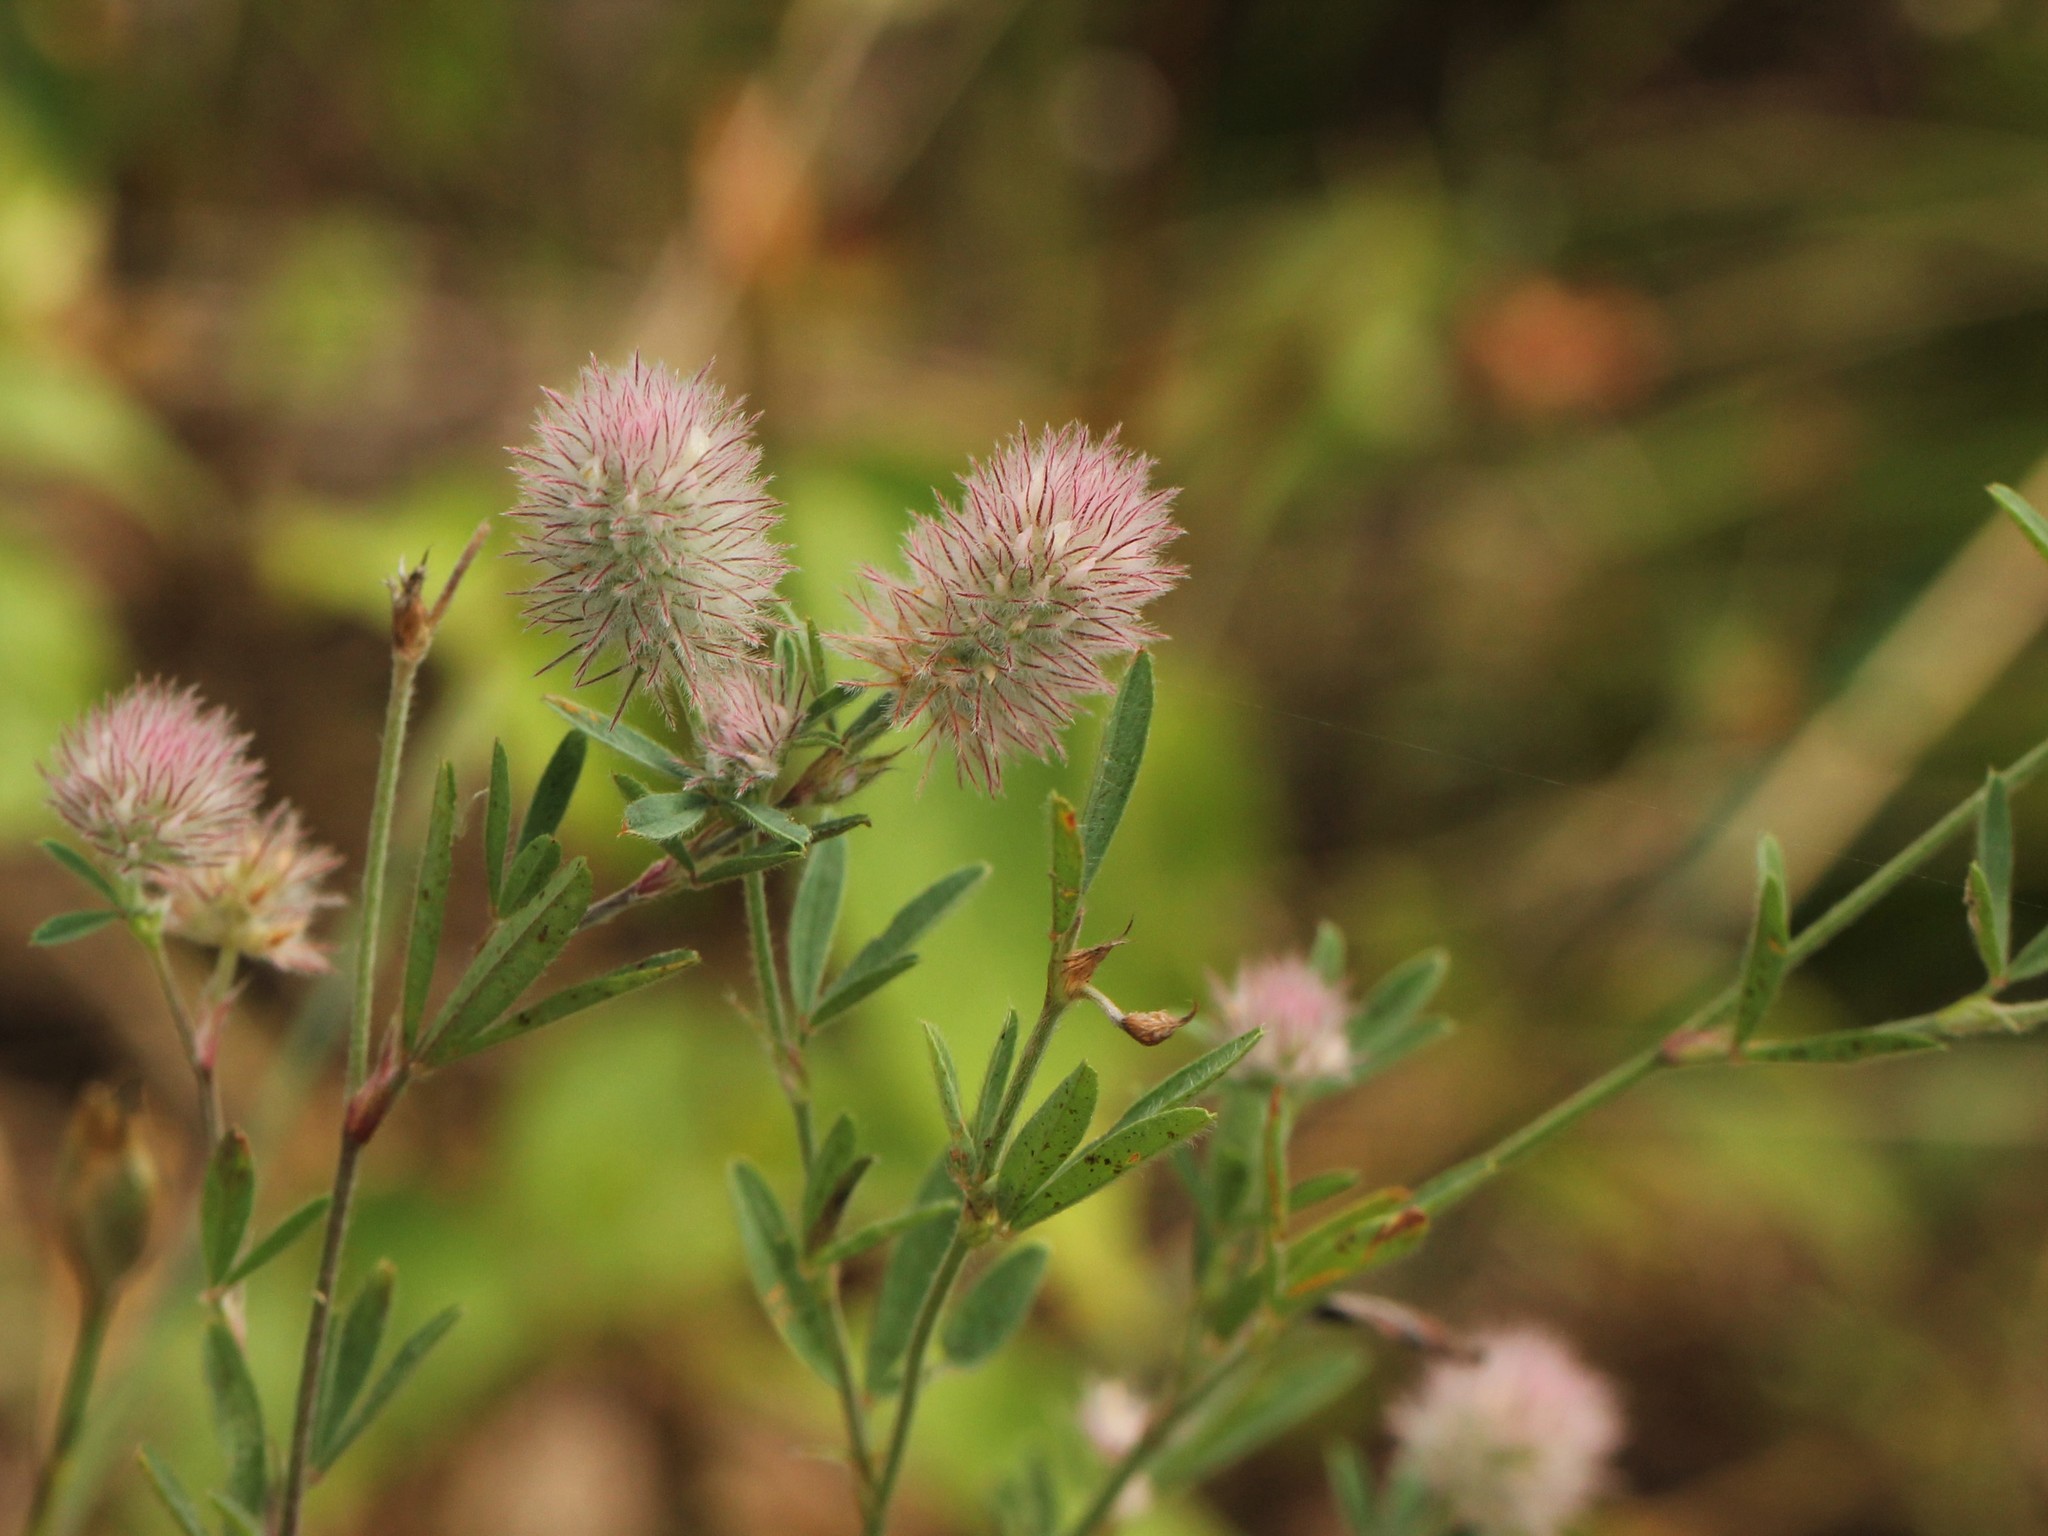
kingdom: Plantae
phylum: Tracheophyta
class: Magnoliopsida
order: Fabales
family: Fabaceae
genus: Trifolium
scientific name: Trifolium arvense
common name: Hare's-foot clover
